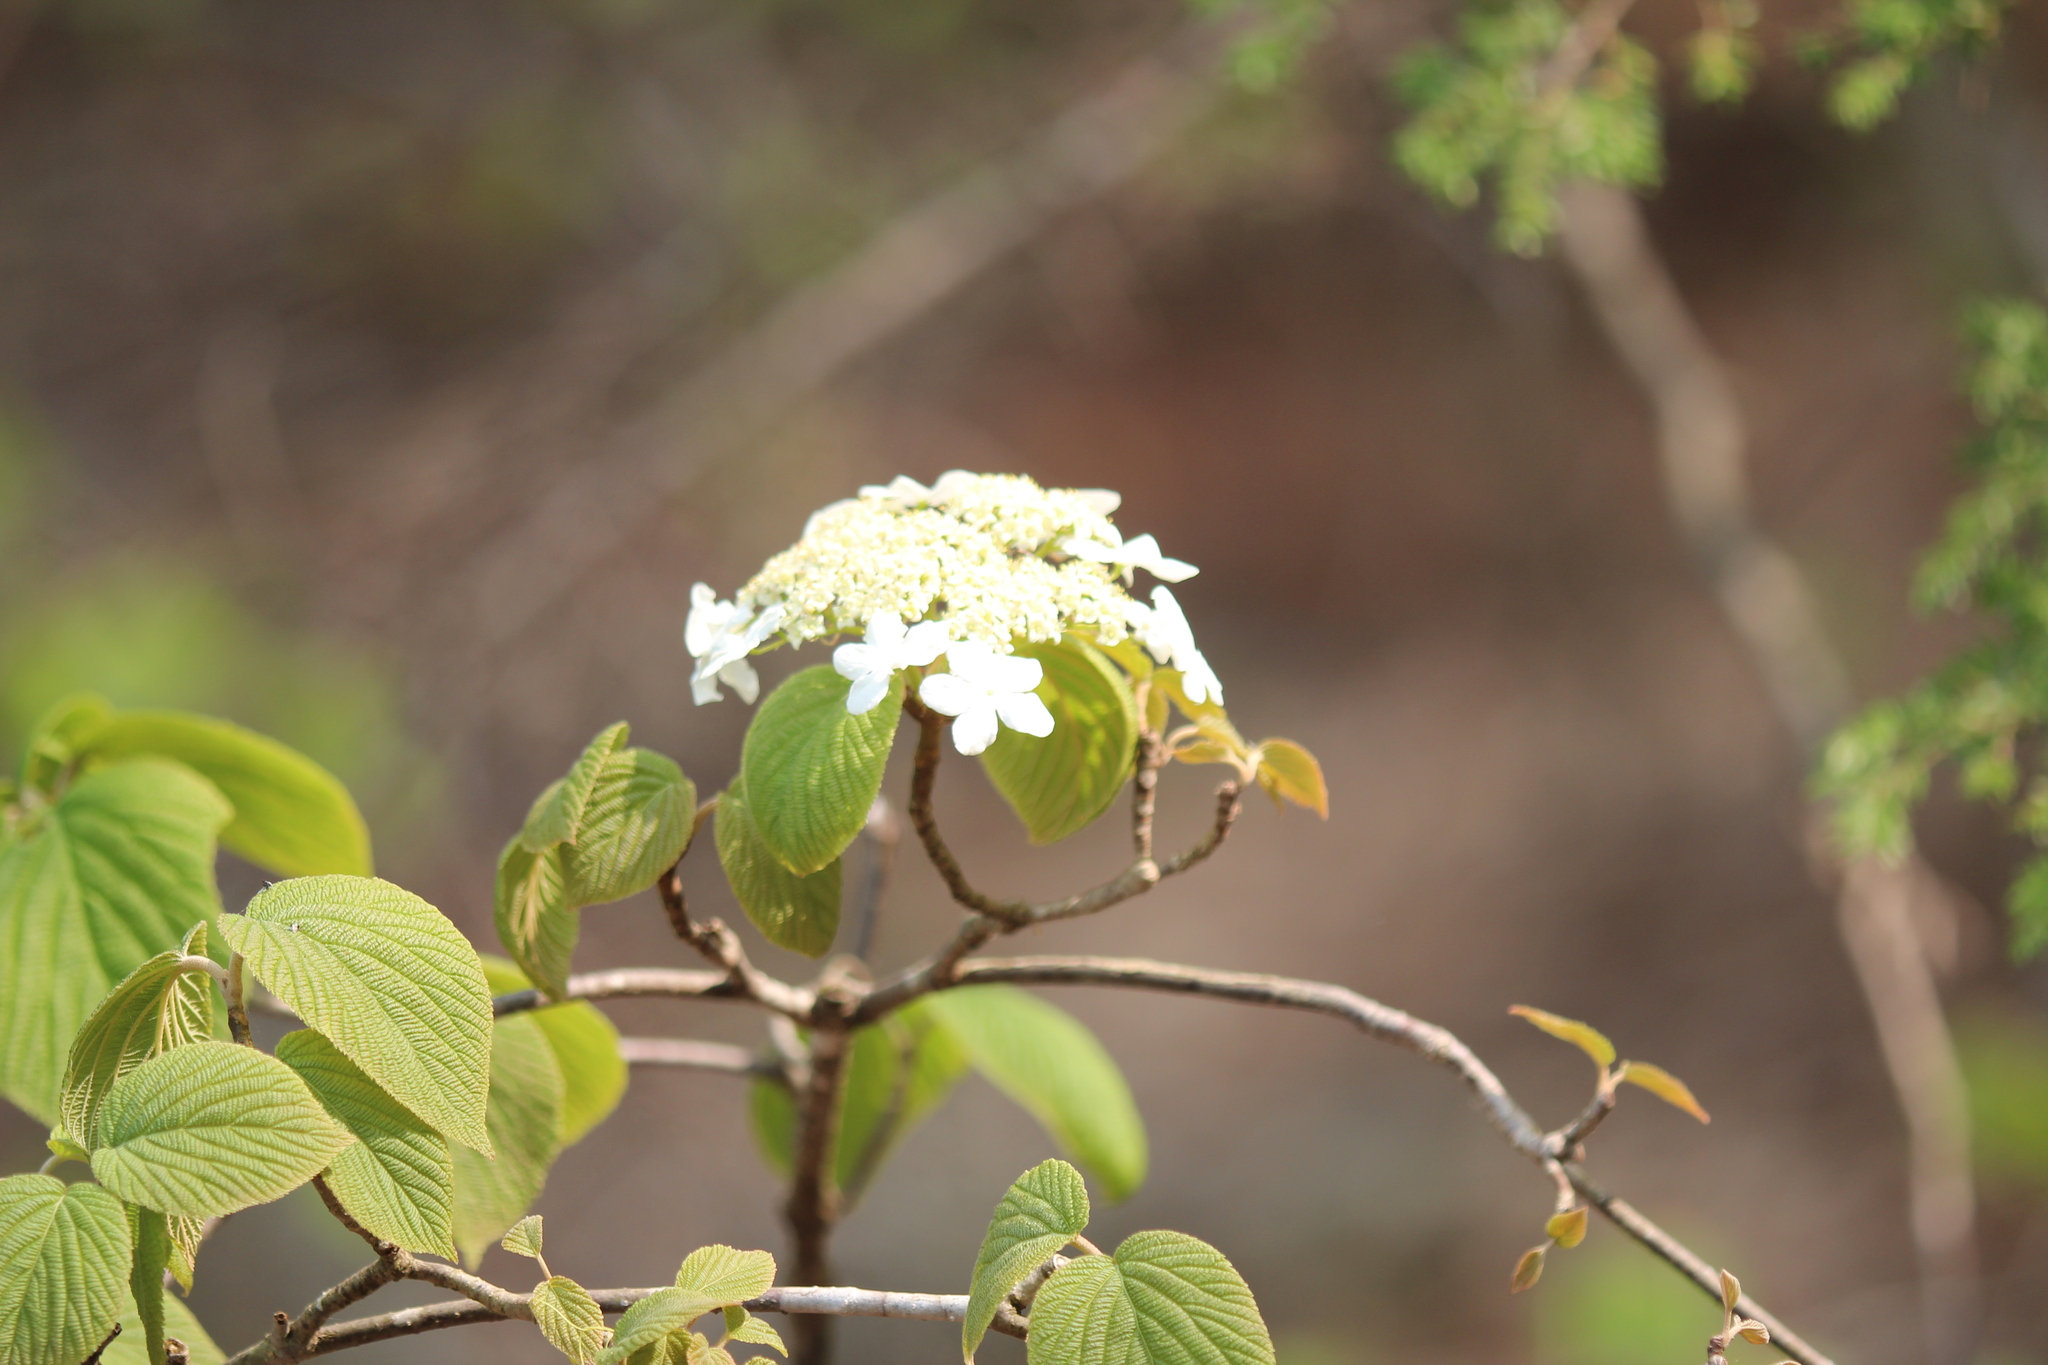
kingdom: Plantae
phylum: Tracheophyta
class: Magnoliopsida
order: Dipsacales
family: Viburnaceae
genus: Viburnum
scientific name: Viburnum lantanoides
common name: Hobblebush
